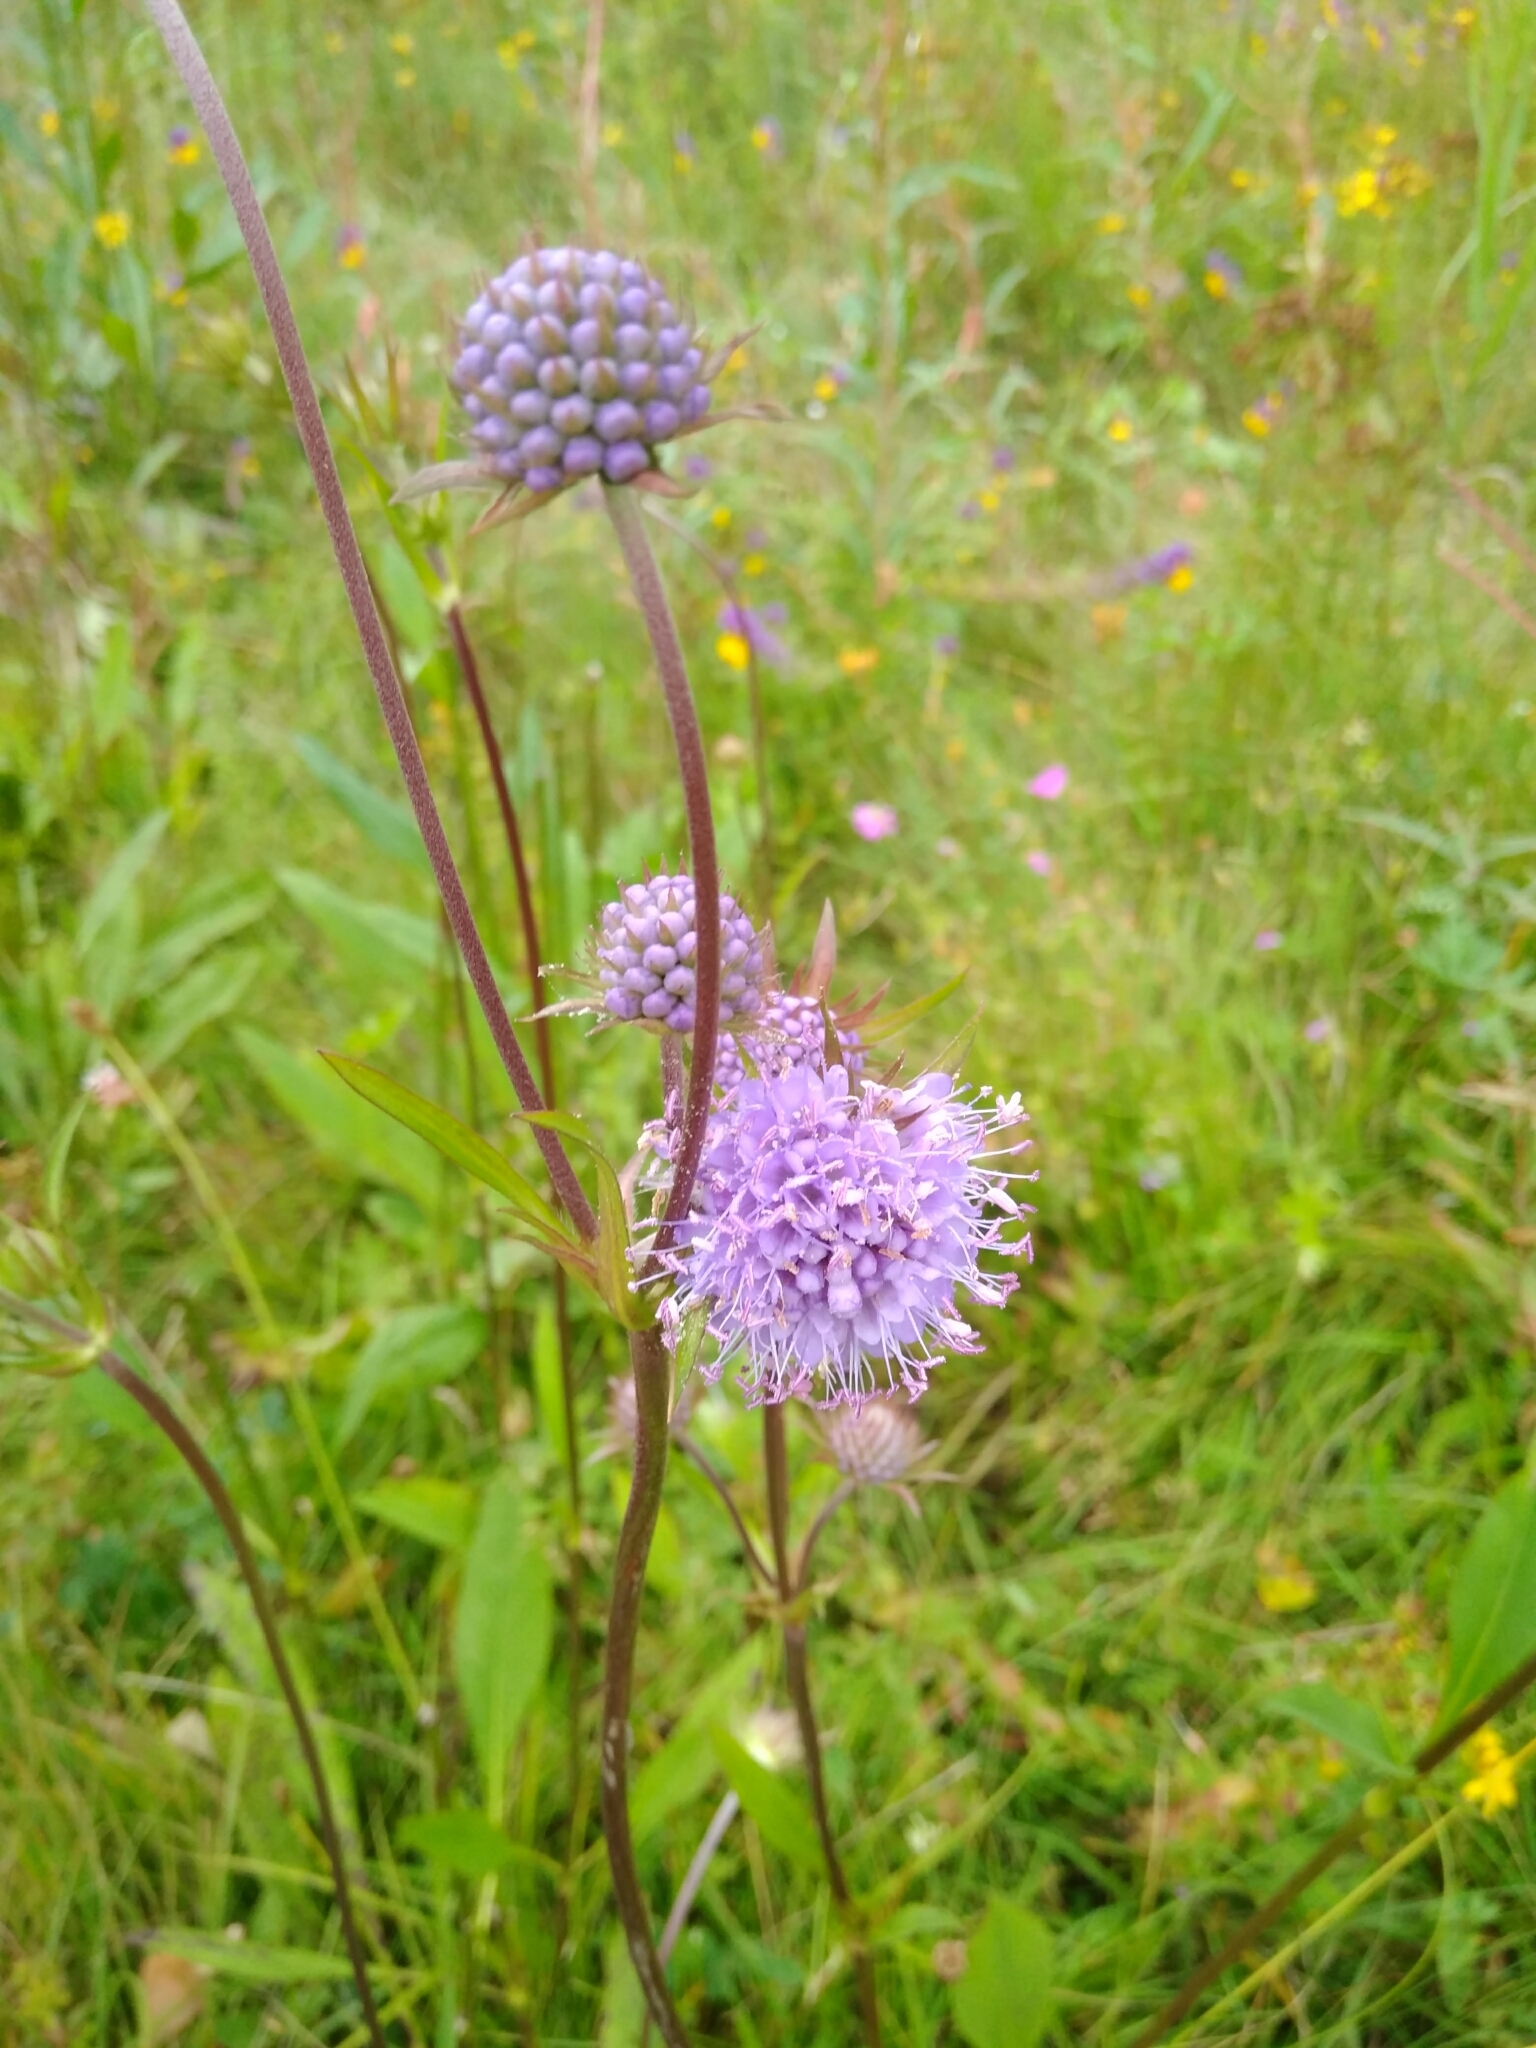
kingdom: Plantae
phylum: Tracheophyta
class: Magnoliopsida
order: Dipsacales
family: Caprifoliaceae
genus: Succisa
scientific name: Succisa pratensis
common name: Devil's-bit
